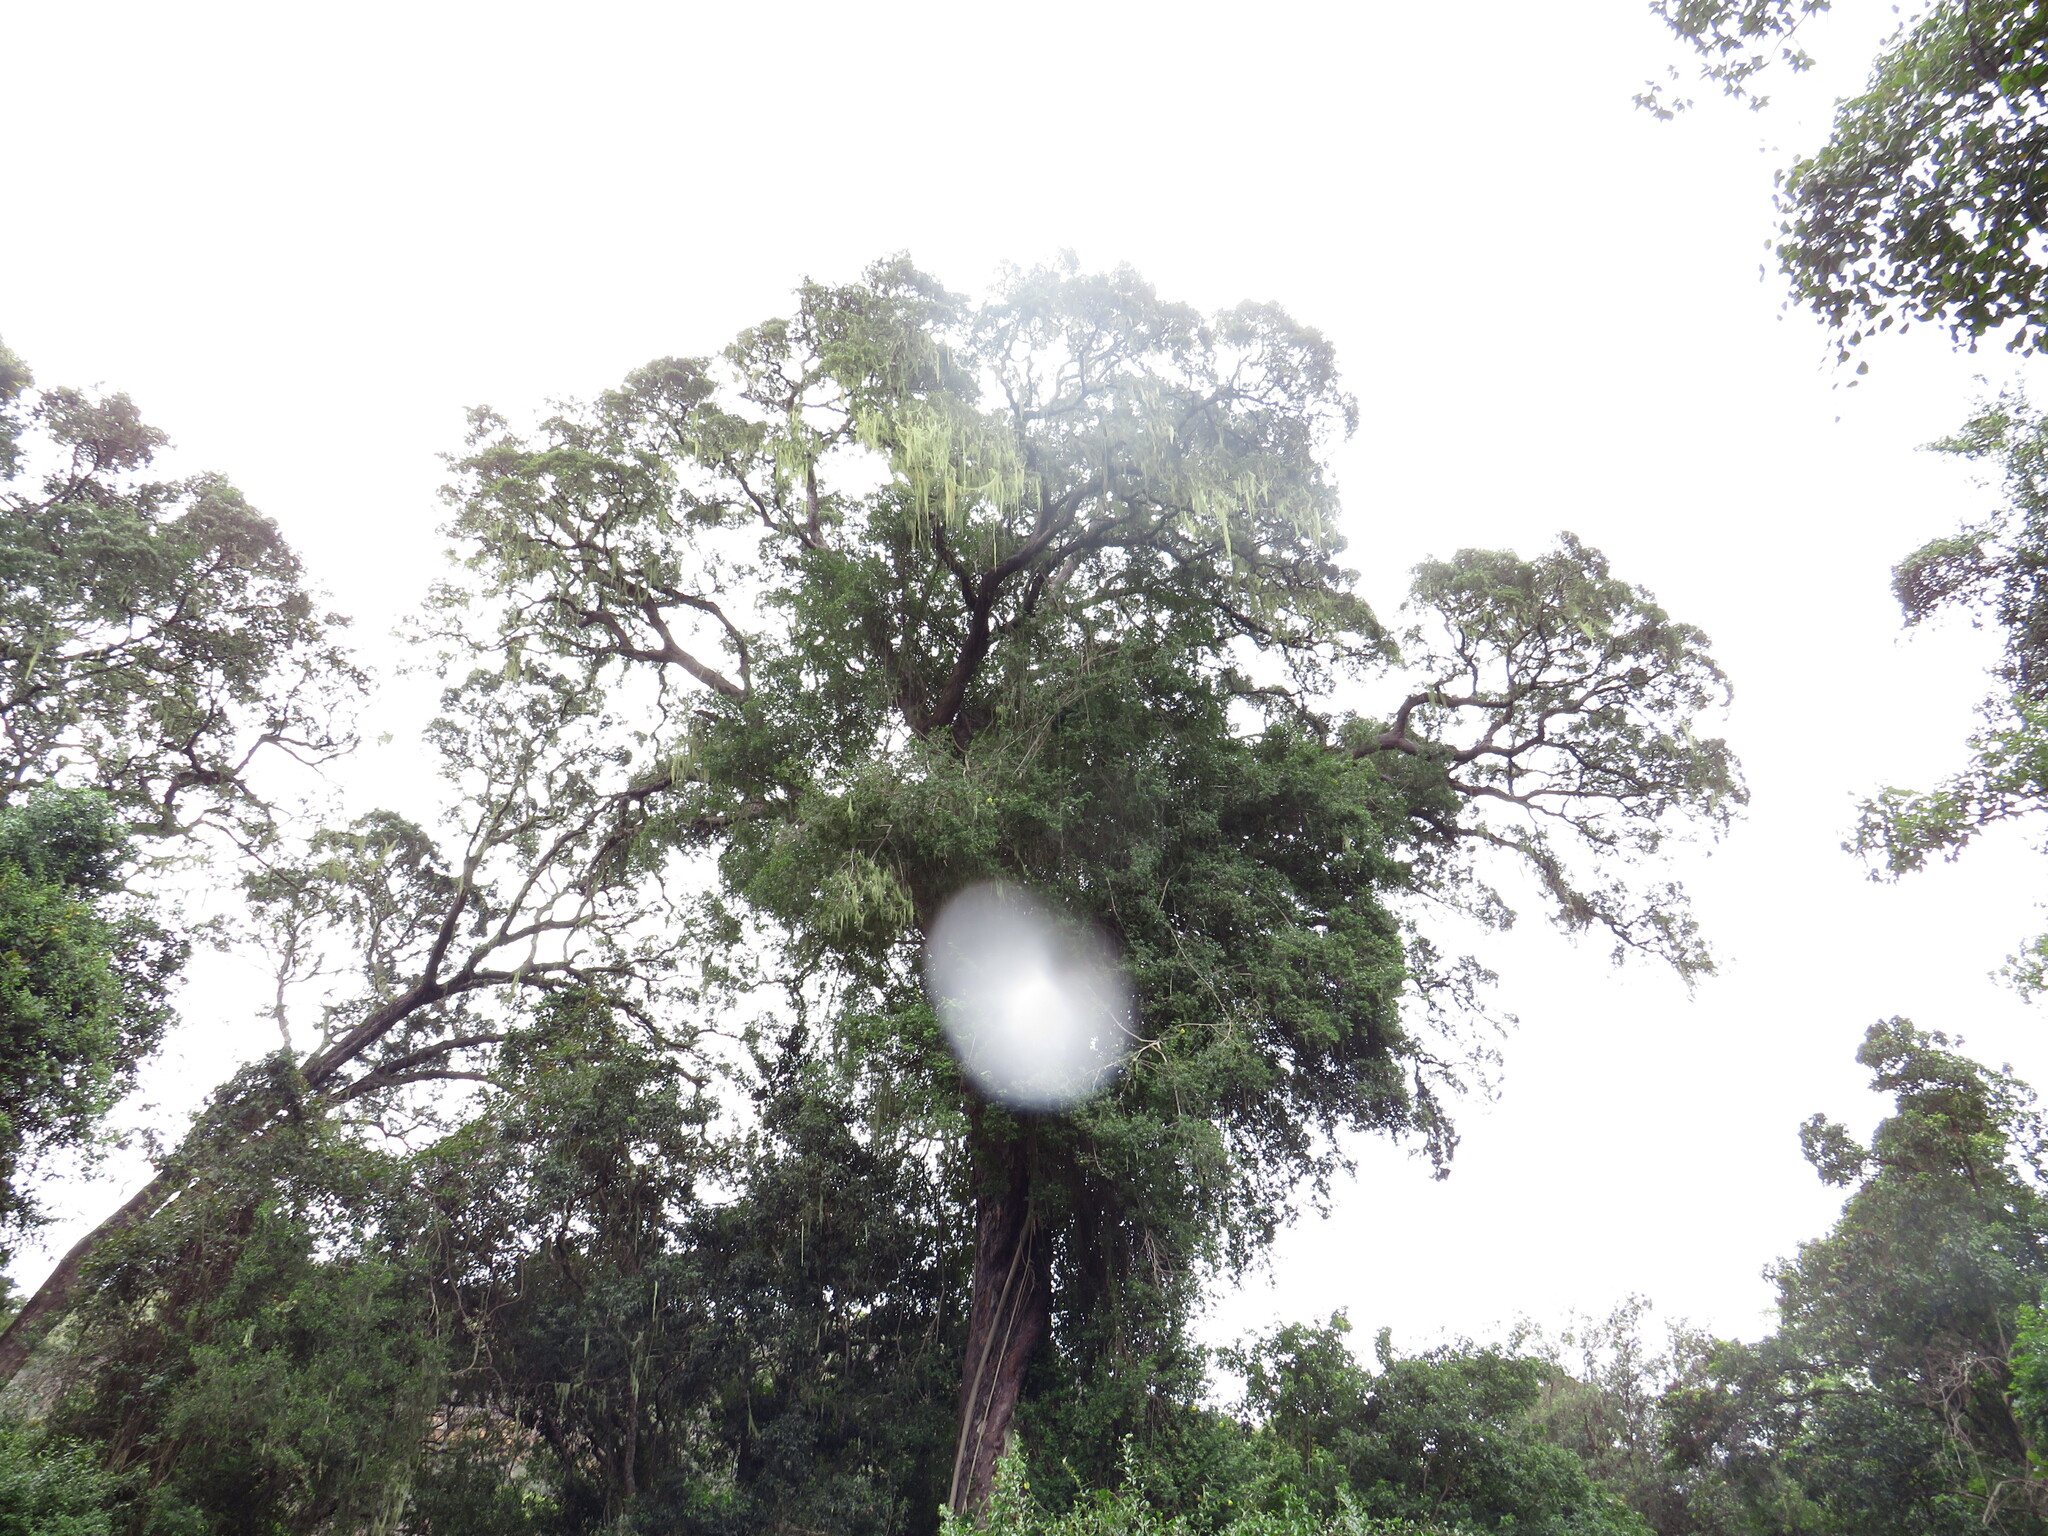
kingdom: Plantae
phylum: Tracheophyta
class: Magnoliopsida
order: Malvales
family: Malvaceae
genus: Hibiscus
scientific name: Hibiscus diversifolius
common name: Cape hibiscus
